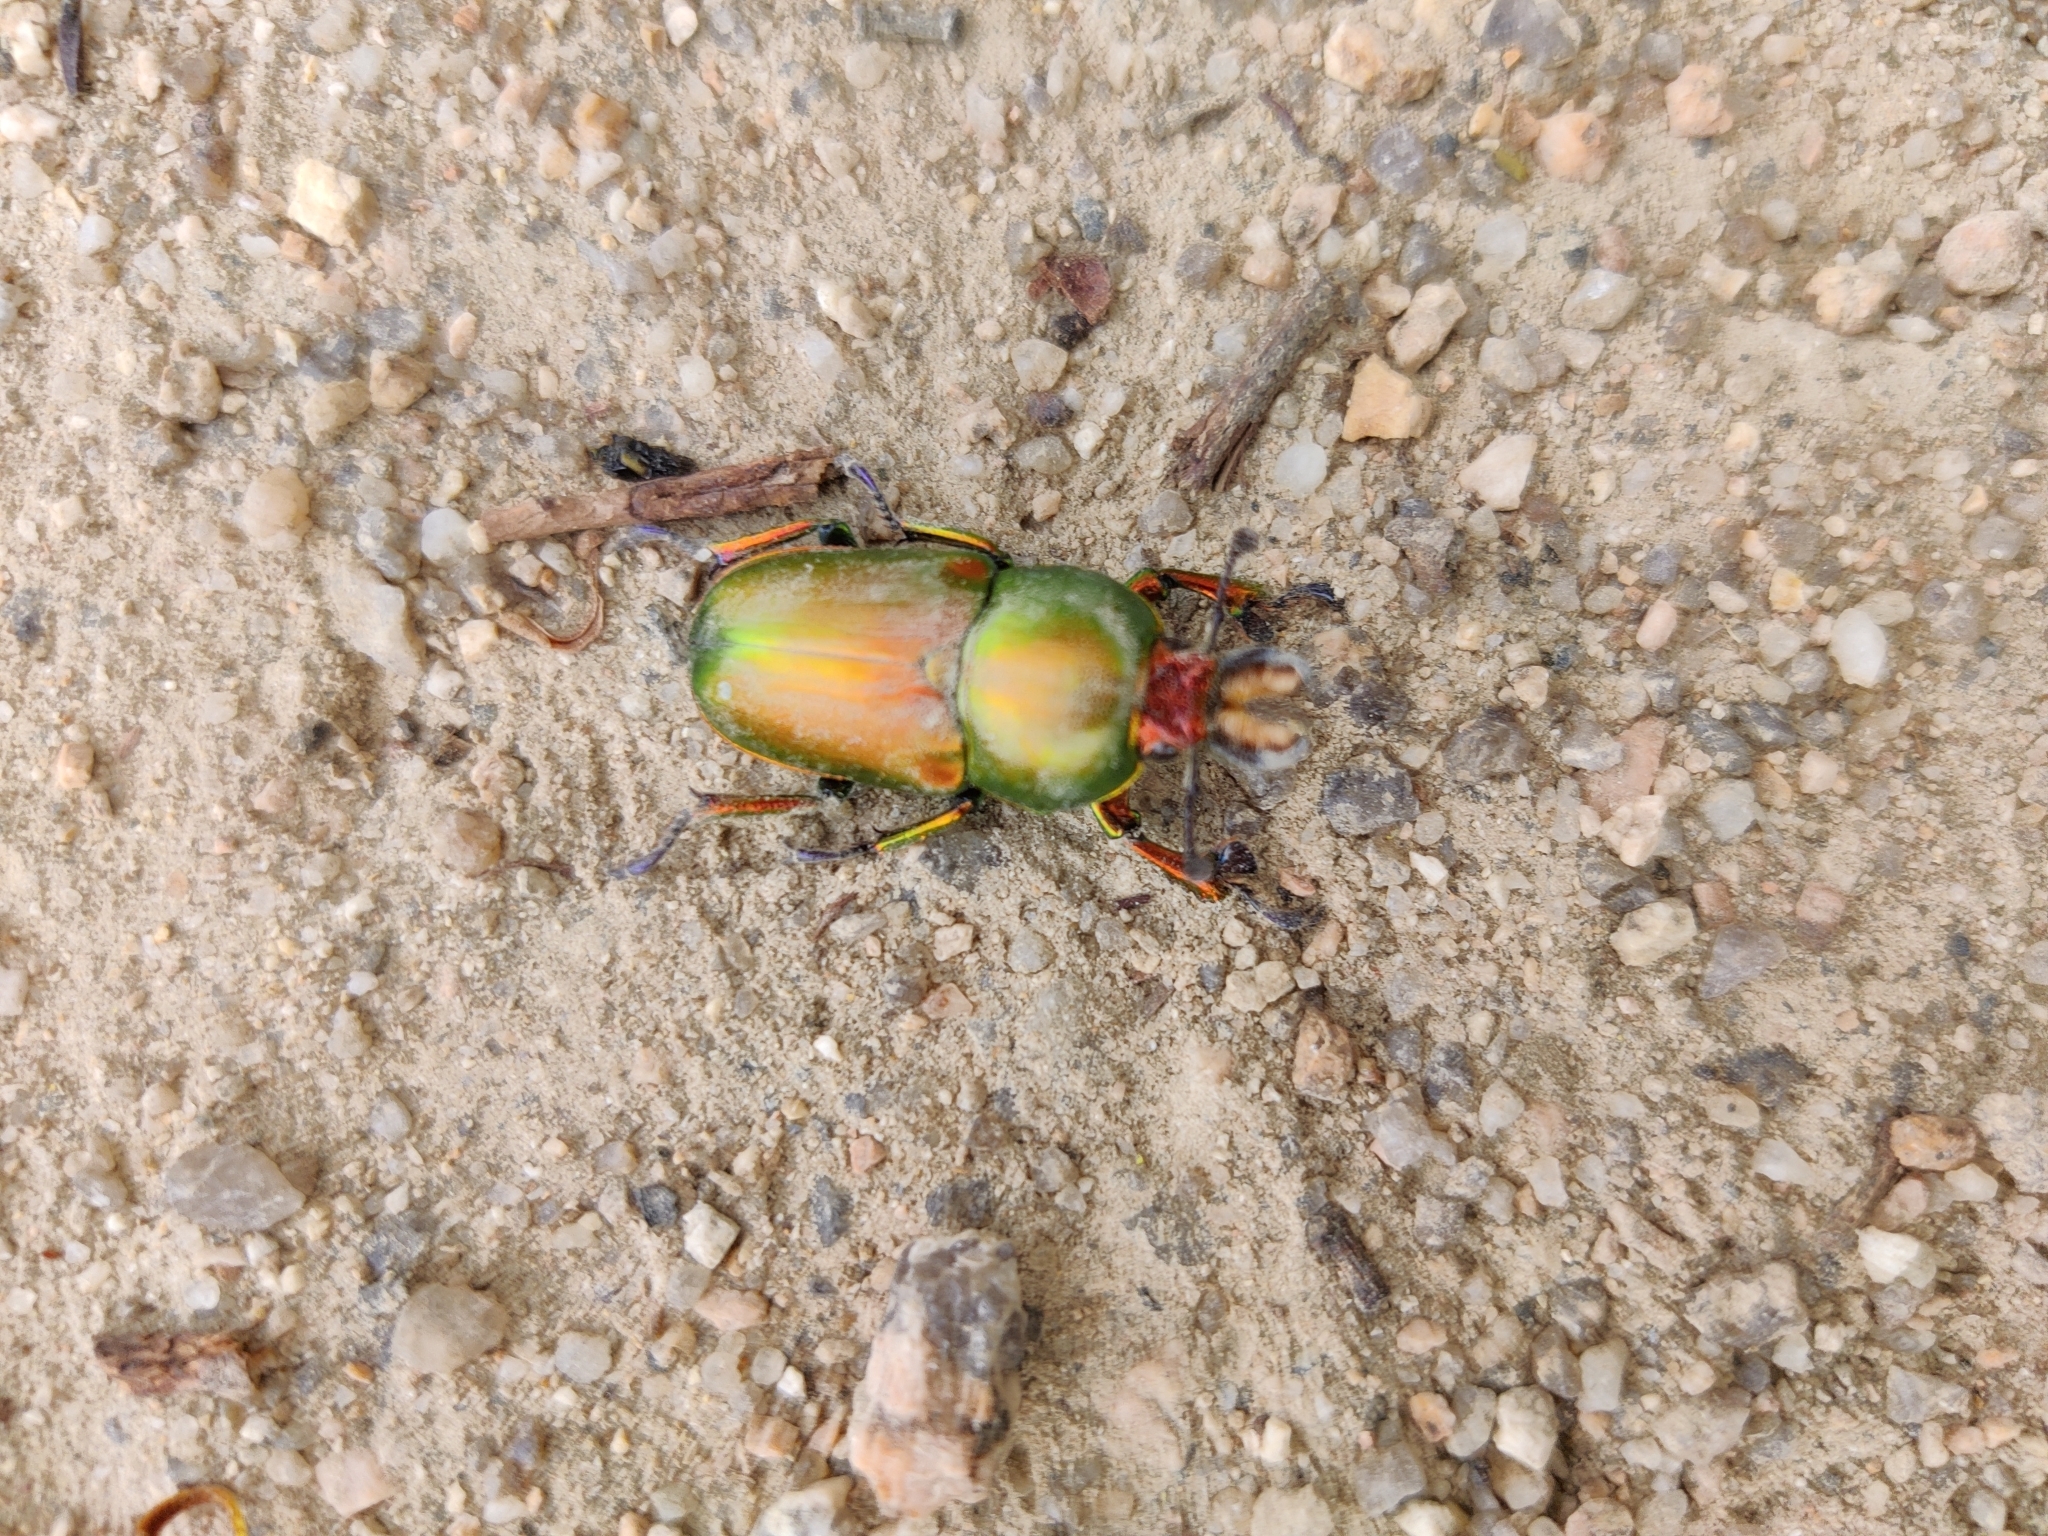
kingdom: Animalia
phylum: Arthropoda
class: Insecta
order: Coleoptera
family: Lucanidae
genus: Lamprima
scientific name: Lamprima aurata
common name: Golden stag beetle
